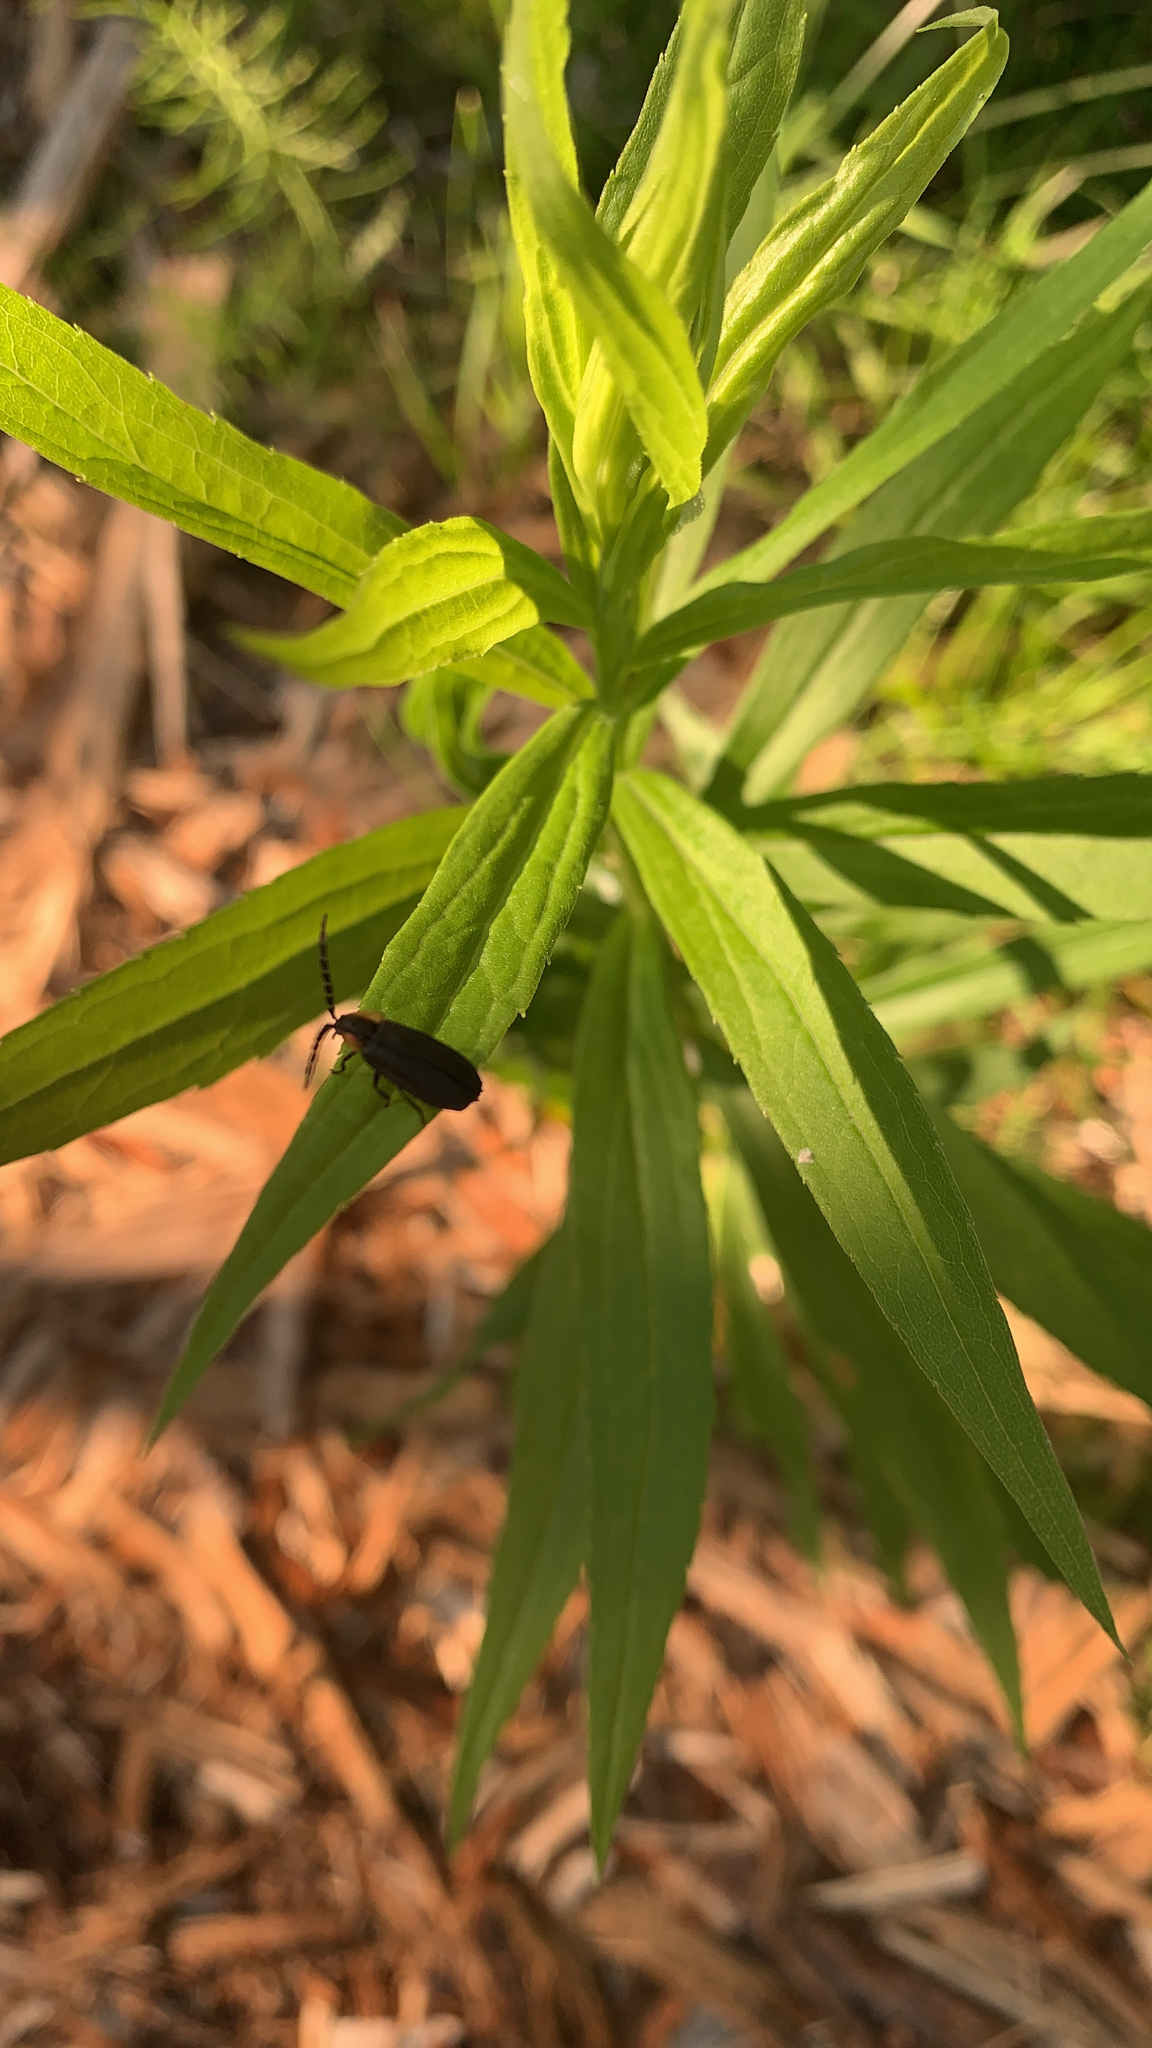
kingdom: Animalia
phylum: Arthropoda
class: Insecta
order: Coleoptera
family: Lampyridae
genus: Lucidota
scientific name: Lucidota atra
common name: Black firefly
